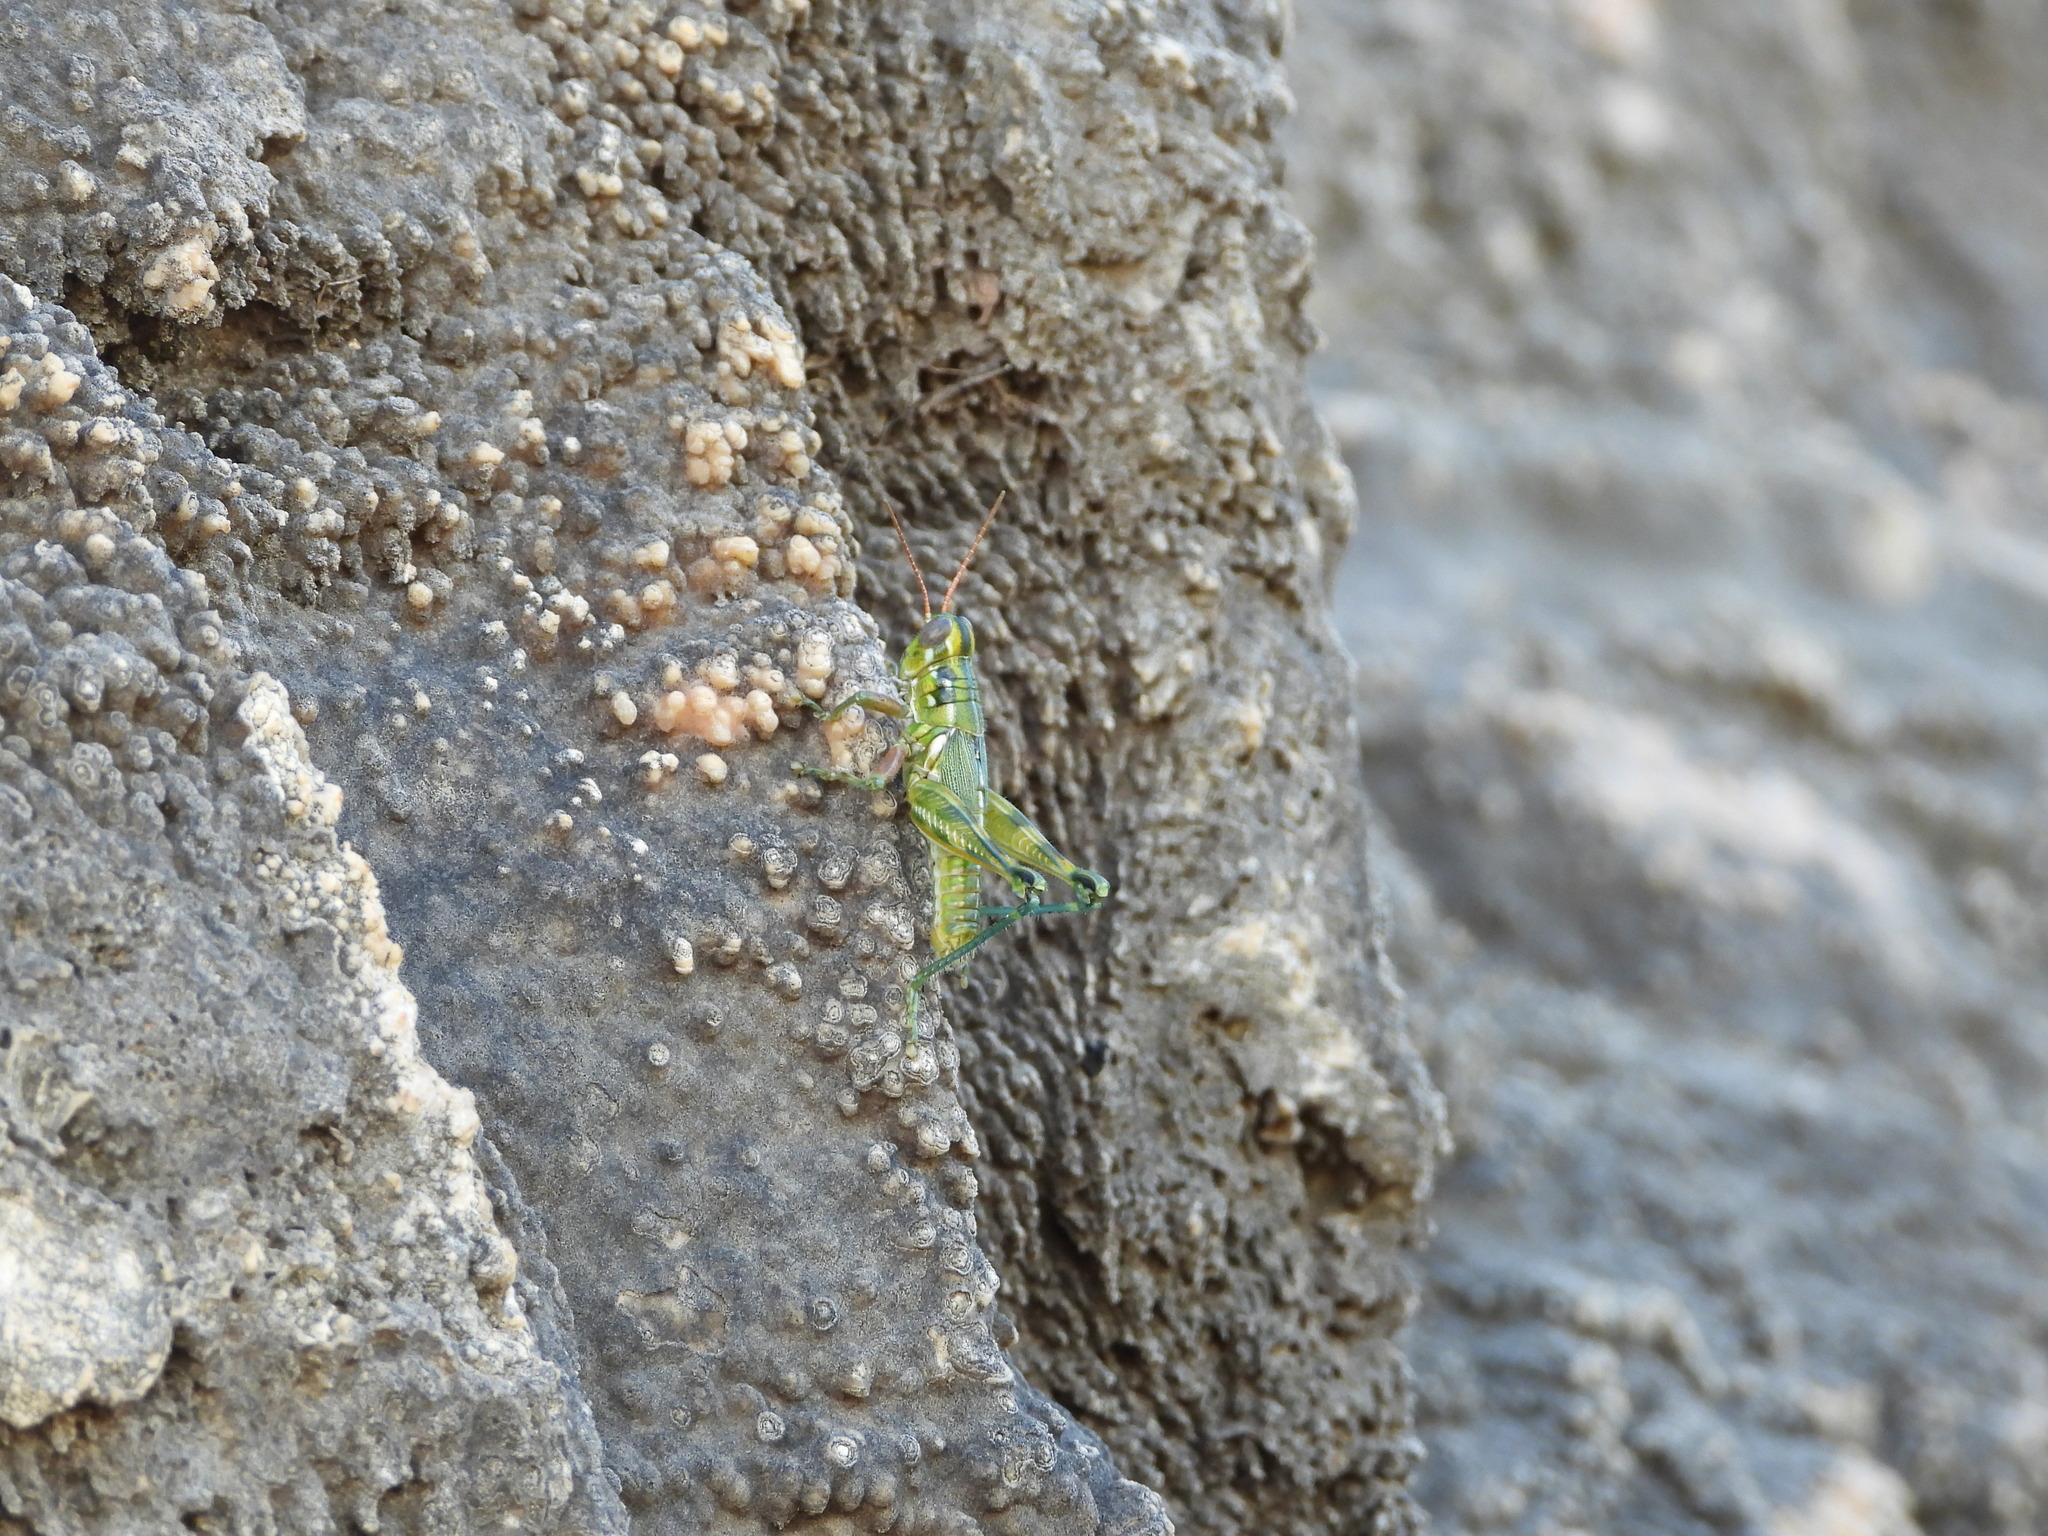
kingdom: Animalia
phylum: Arthropoda
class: Insecta
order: Orthoptera
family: Acrididae
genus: Campylacantha
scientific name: Campylacantha olivacea
